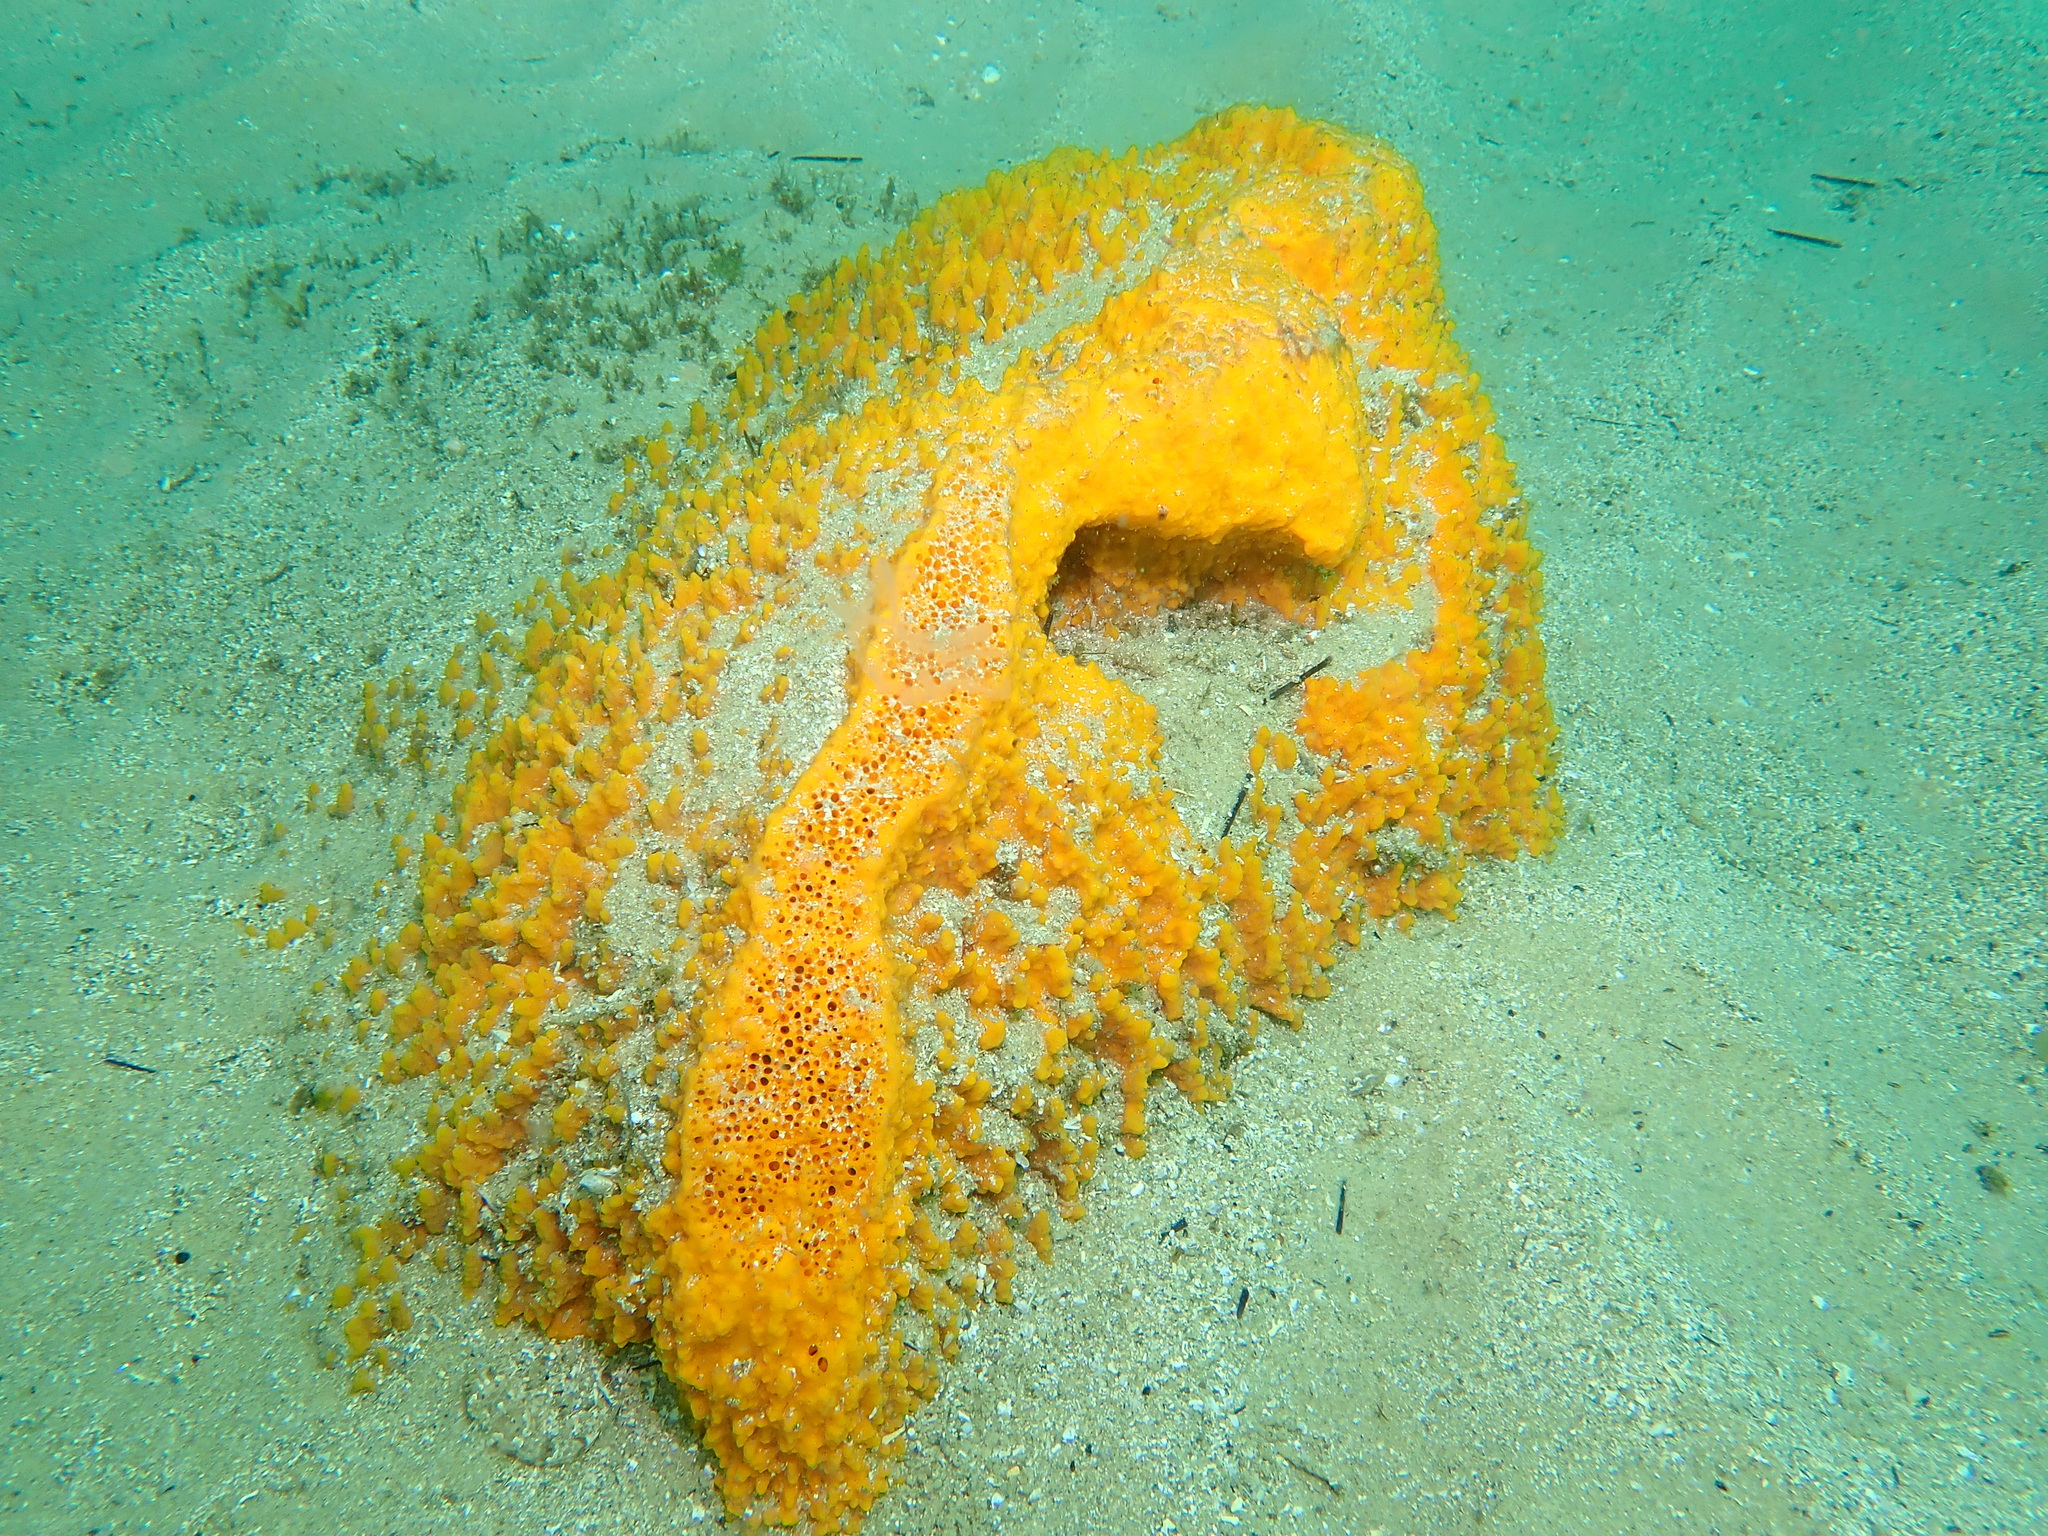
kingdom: Animalia
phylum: Porifera
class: Demospongiae
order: Clionaida
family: Clionaidae
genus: Spheciospongia
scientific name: Spheciospongia papillosa
